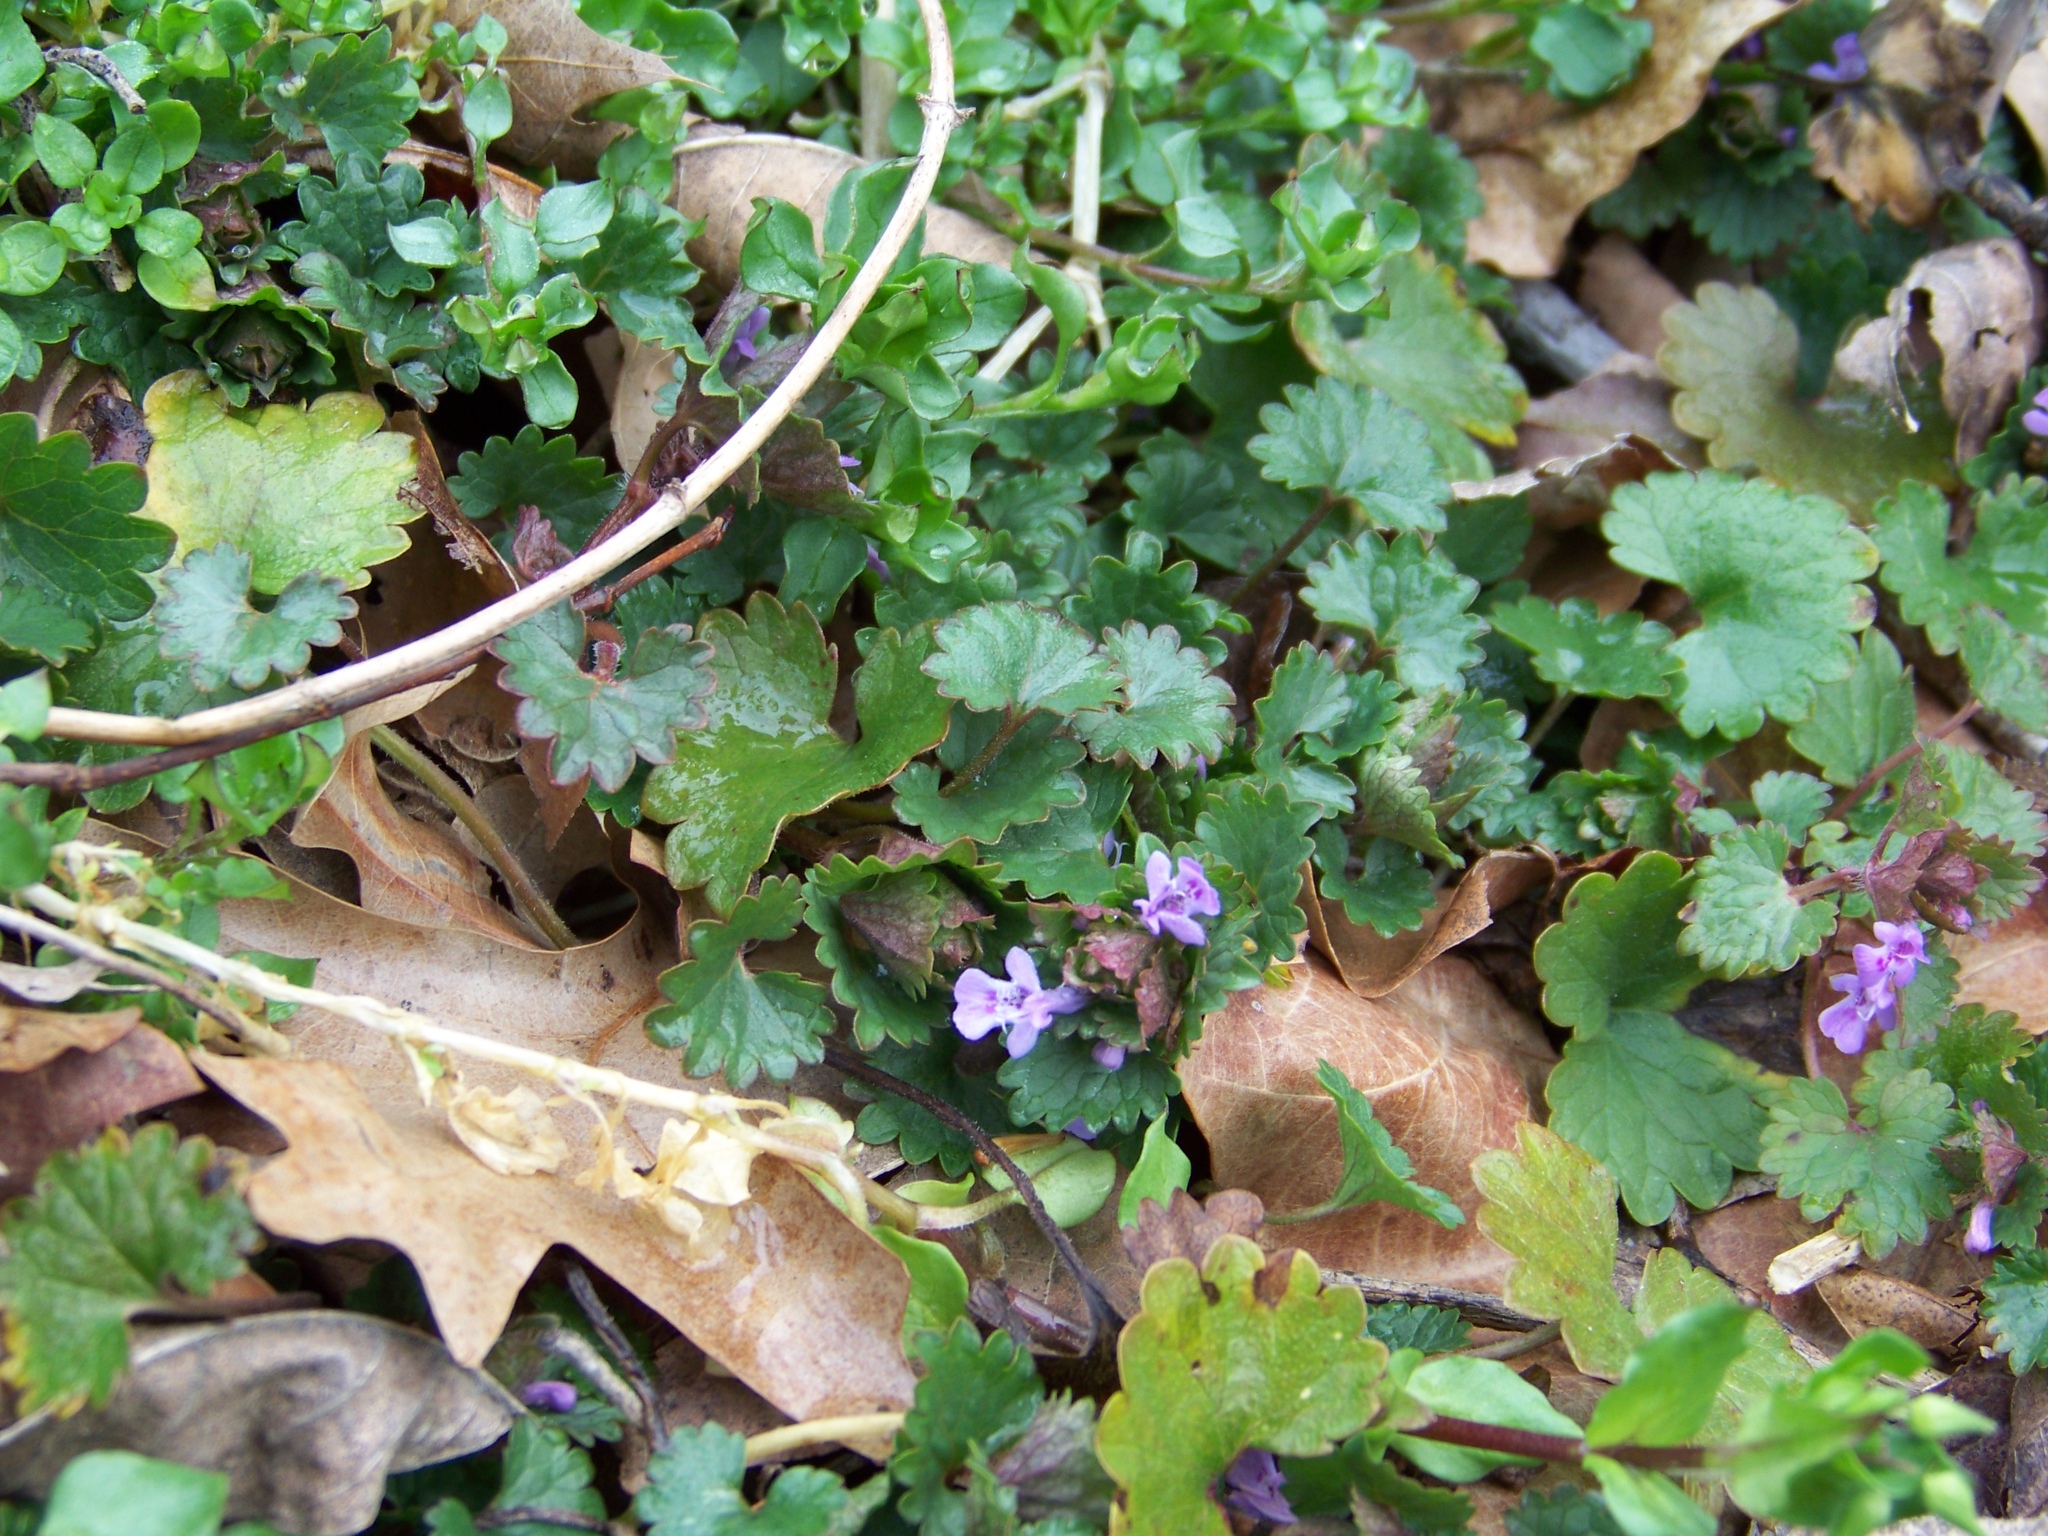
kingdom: Plantae
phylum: Tracheophyta
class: Magnoliopsida
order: Lamiales
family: Lamiaceae
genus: Glechoma
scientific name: Glechoma hederacea
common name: Ground ivy
